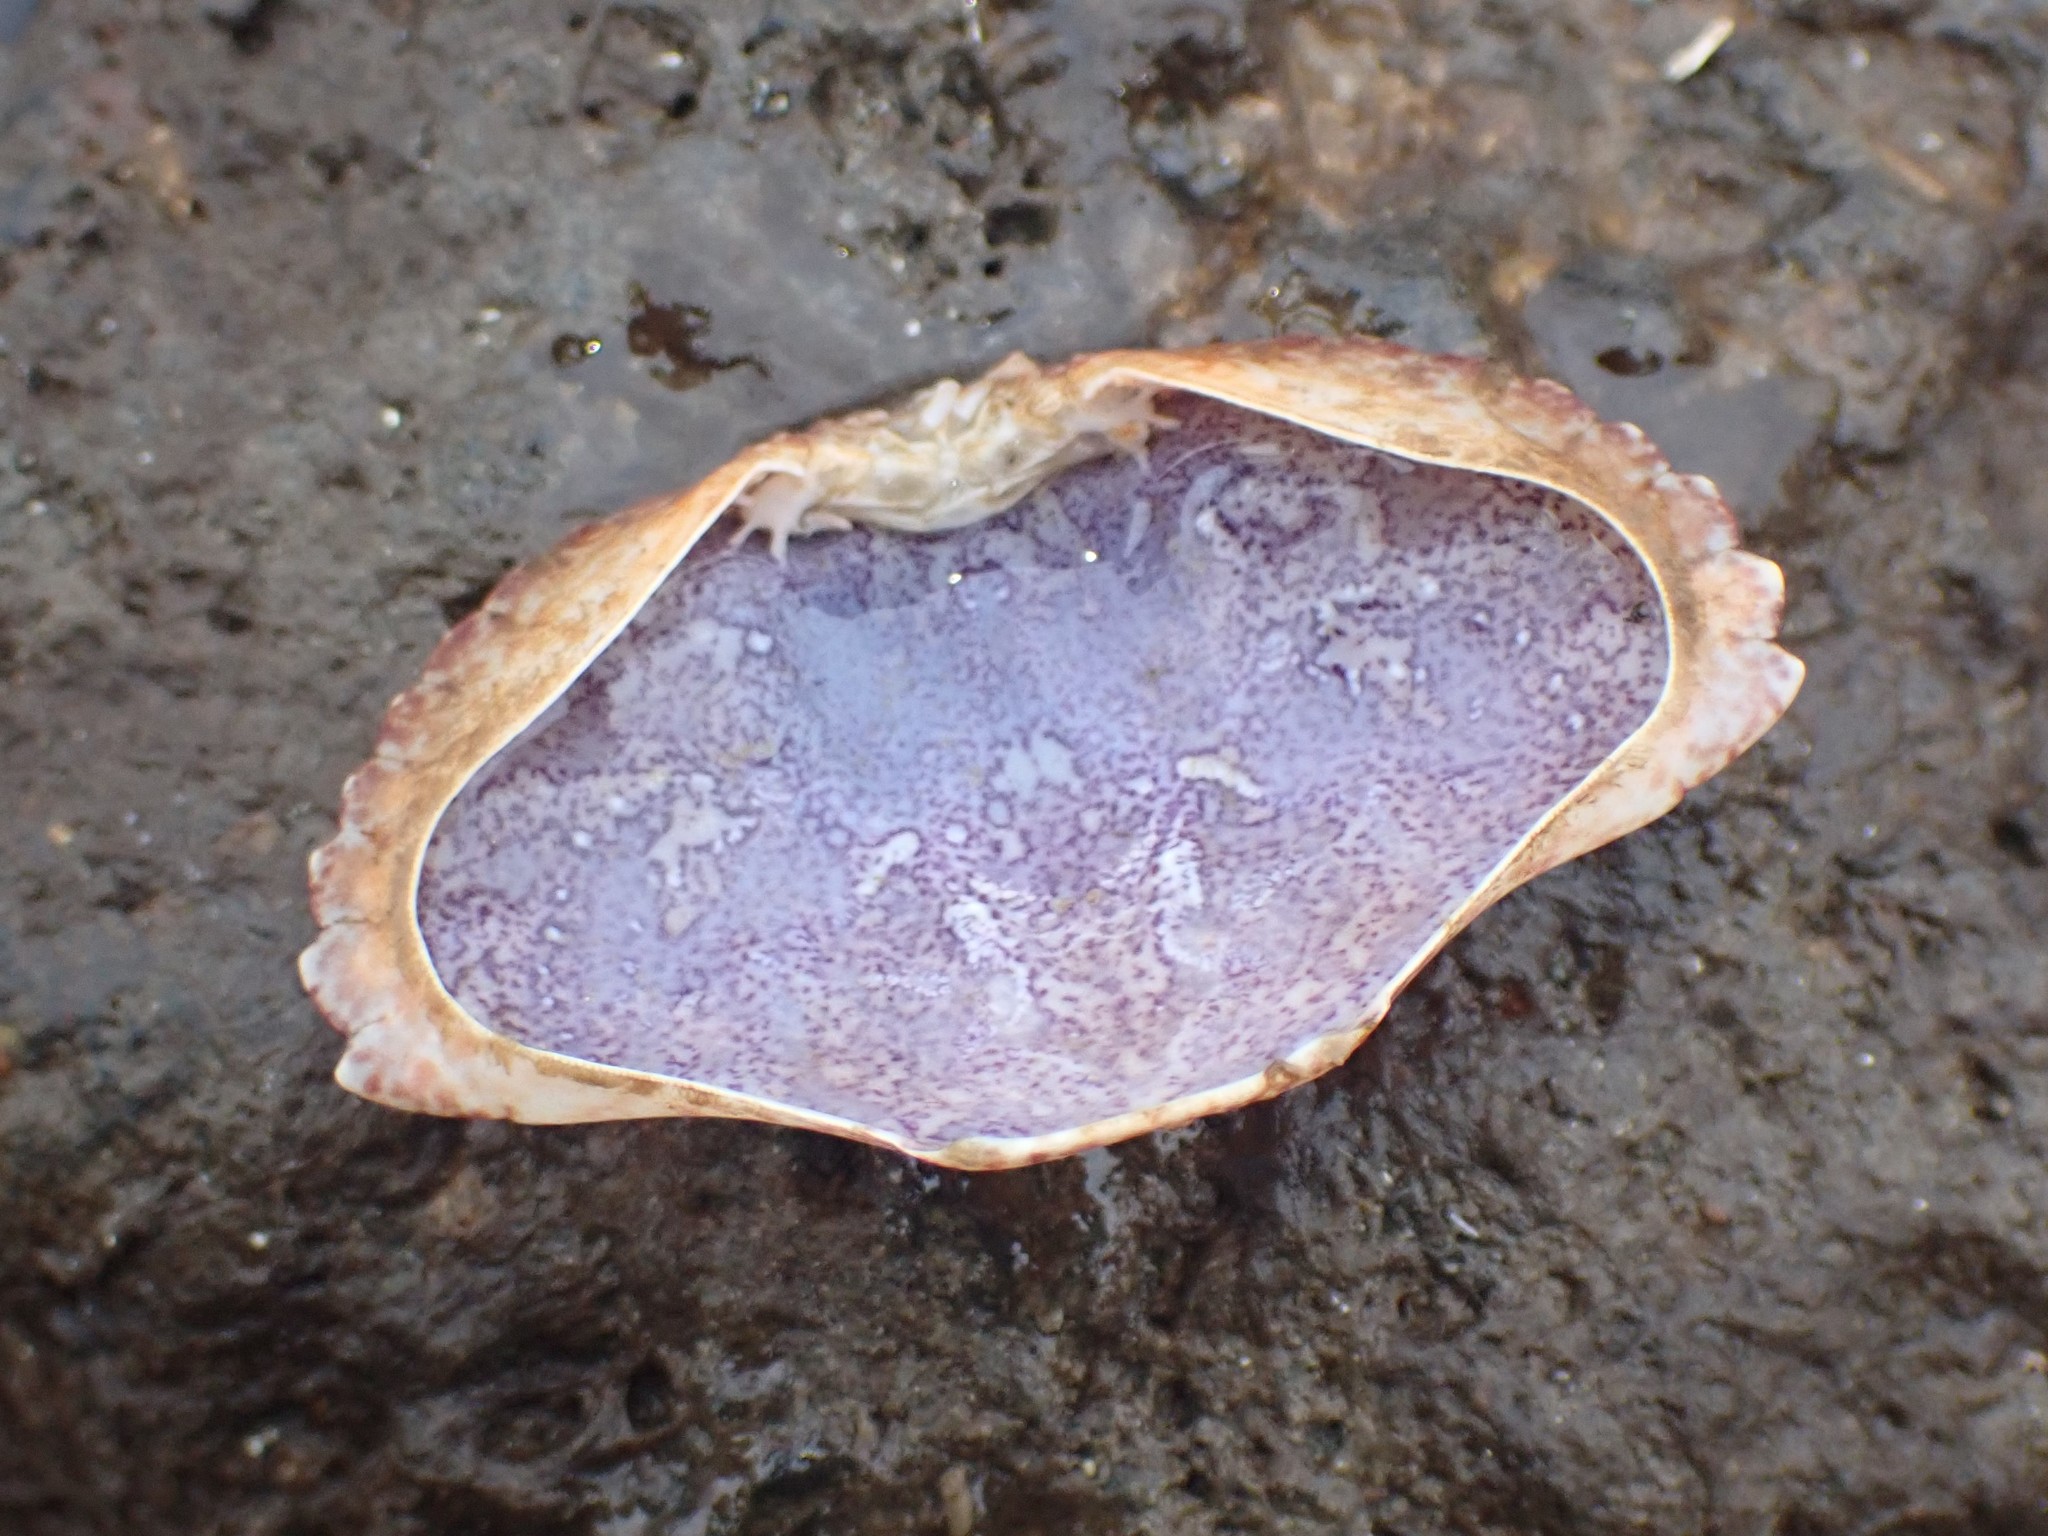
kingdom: Animalia
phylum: Arthropoda
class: Malacostraca
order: Decapoda
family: Cancridae
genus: Cancer
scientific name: Cancer productus
